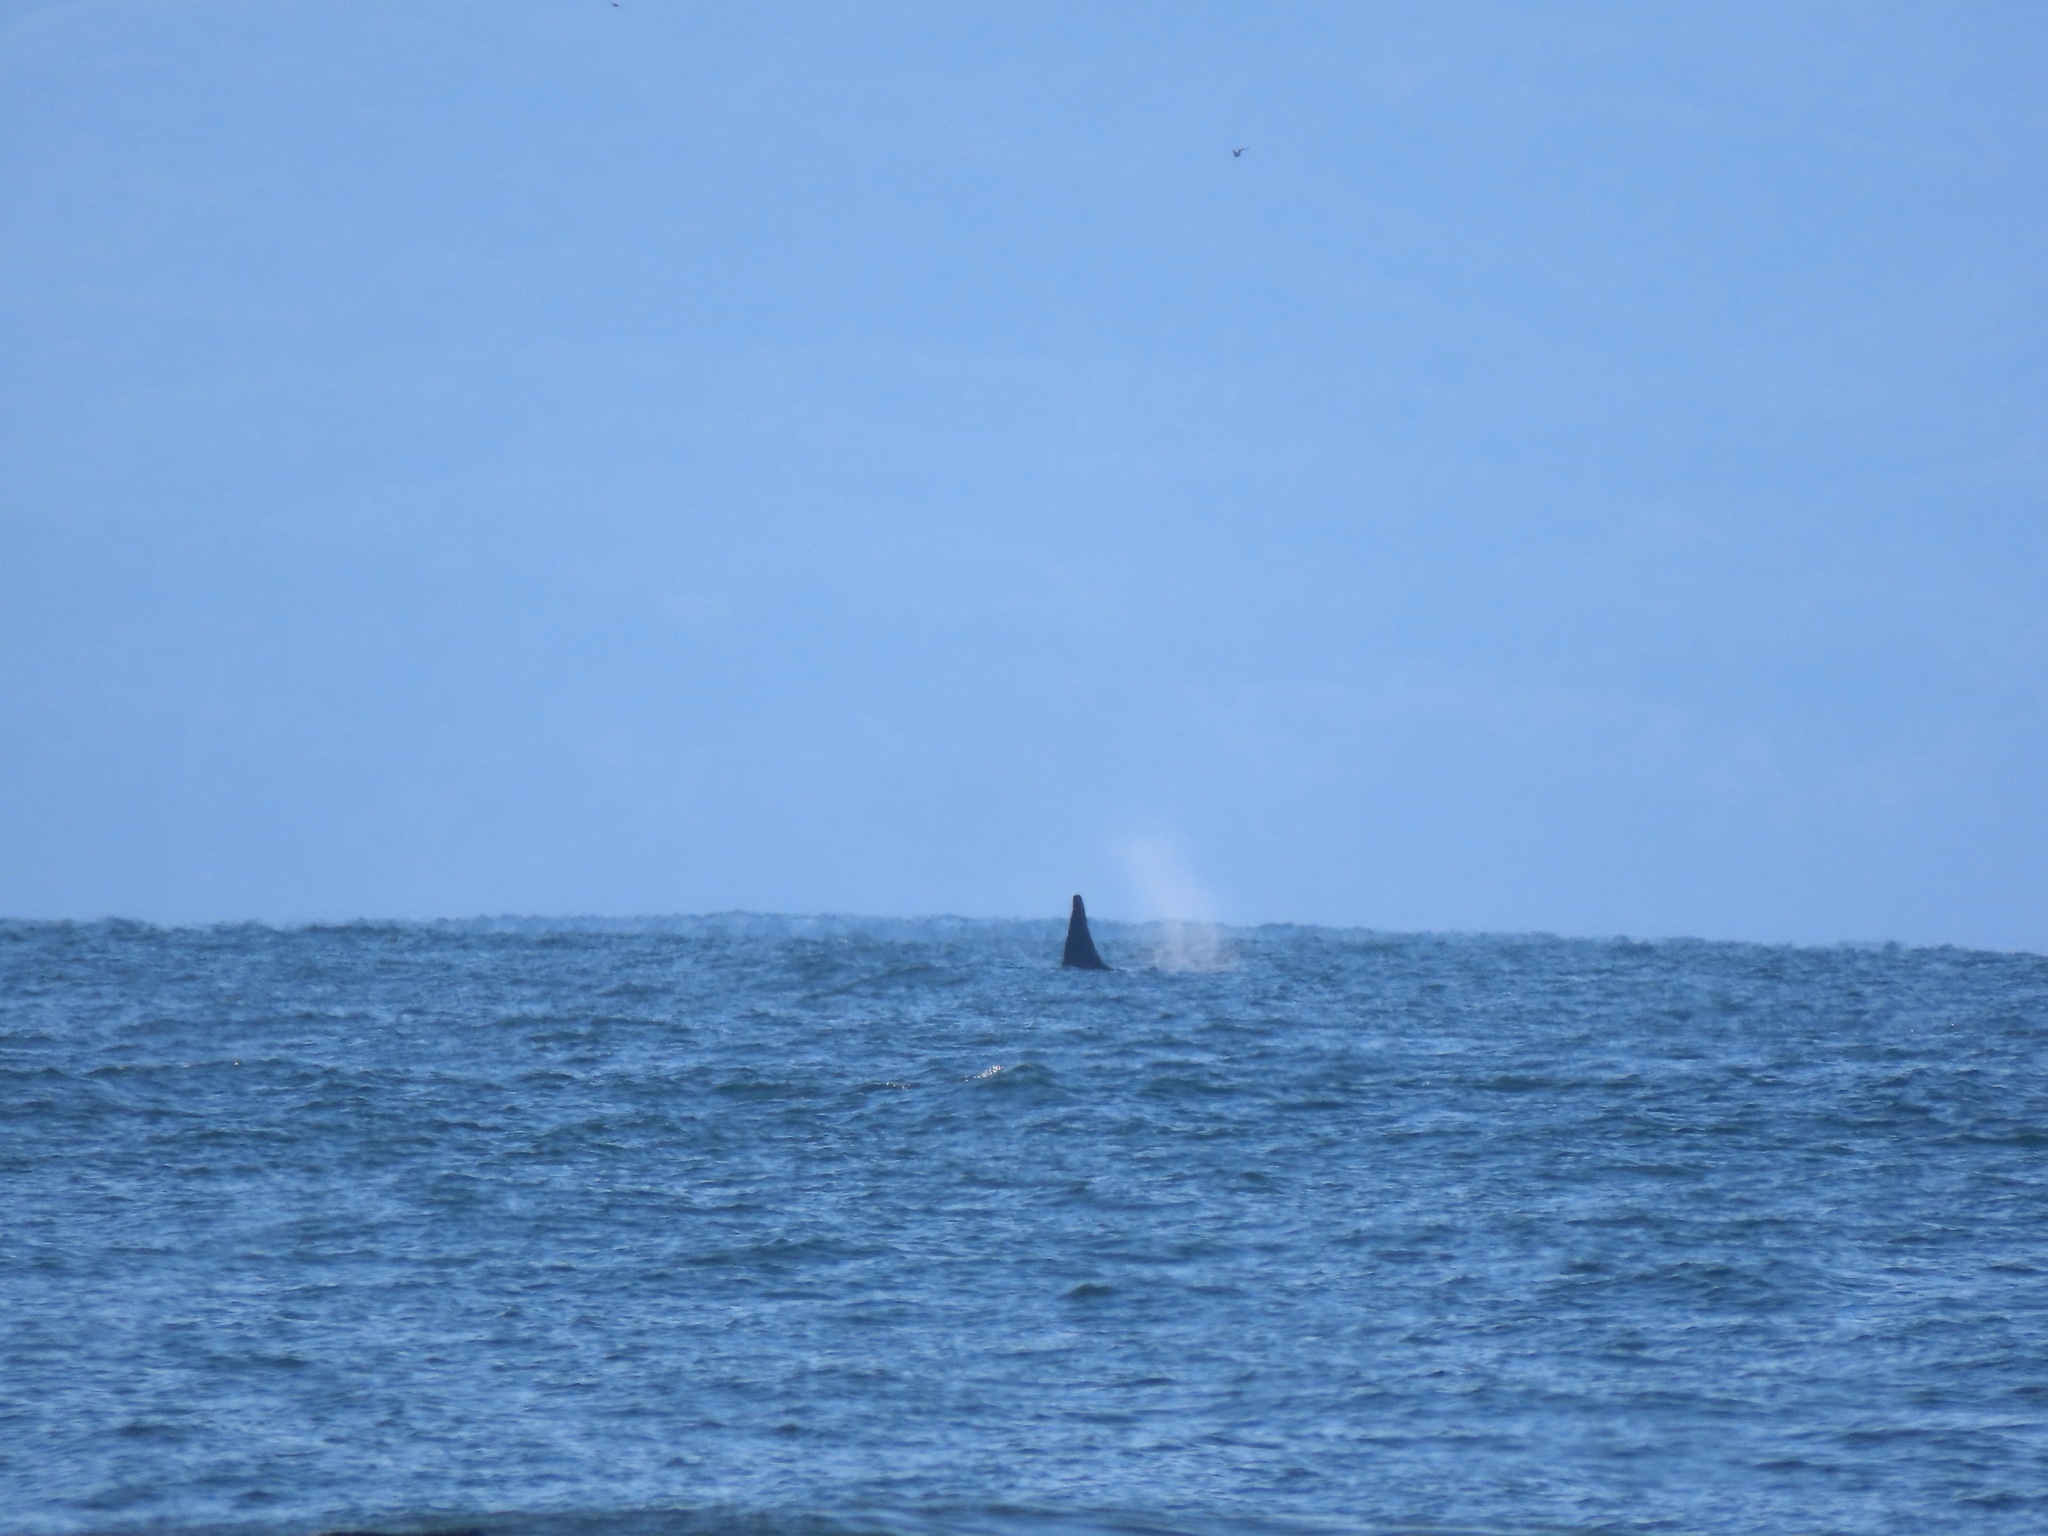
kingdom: Animalia
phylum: Chordata
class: Mammalia
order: Cetacea
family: Delphinidae
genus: Orcinus
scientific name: Orcinus orca
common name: Killer whale
